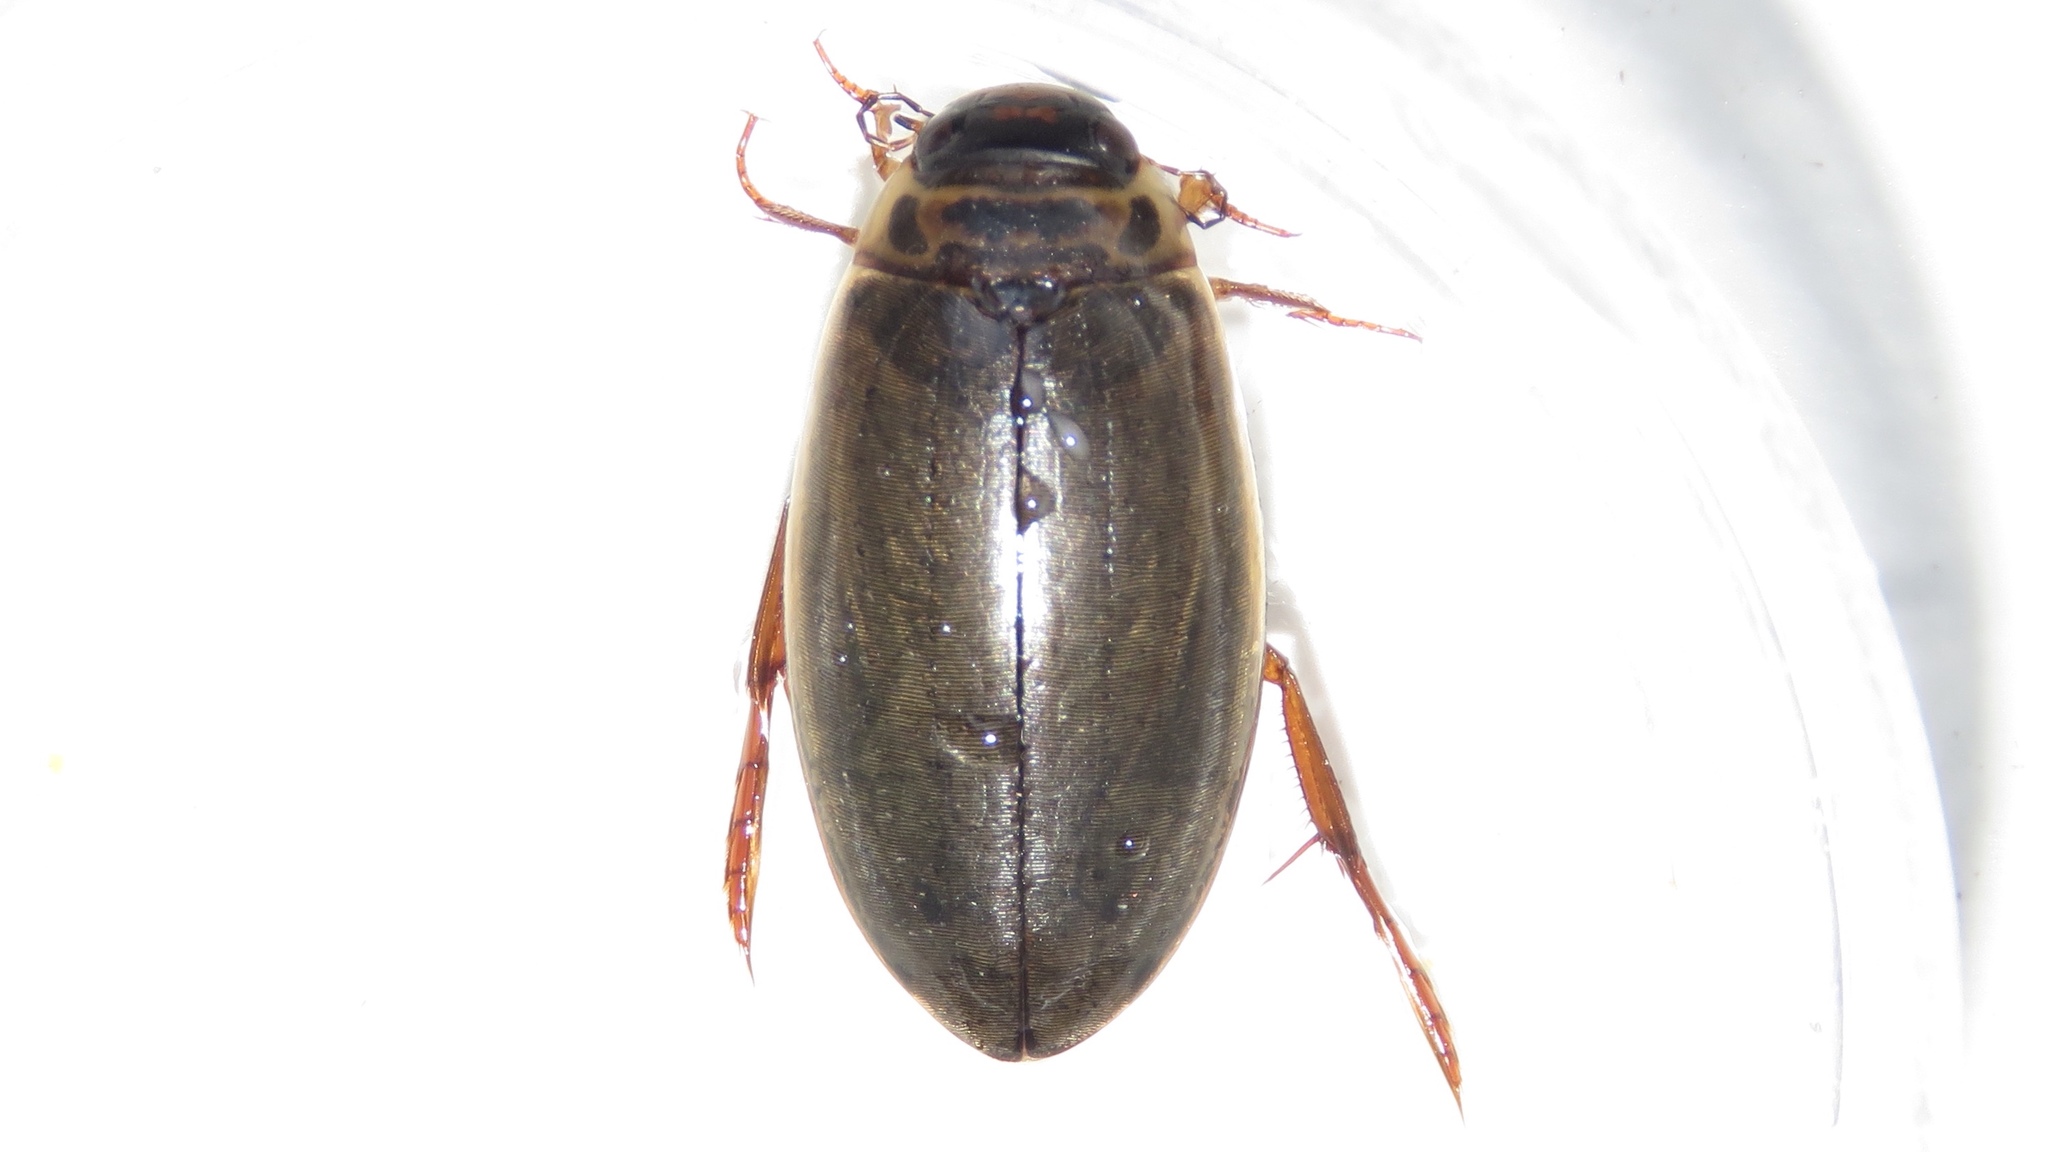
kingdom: Animalia
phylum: Arthropoda
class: Insecta
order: Coleoptera
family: Dytiscidae
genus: Colymbetes
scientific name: Colymbetes sculptilis
